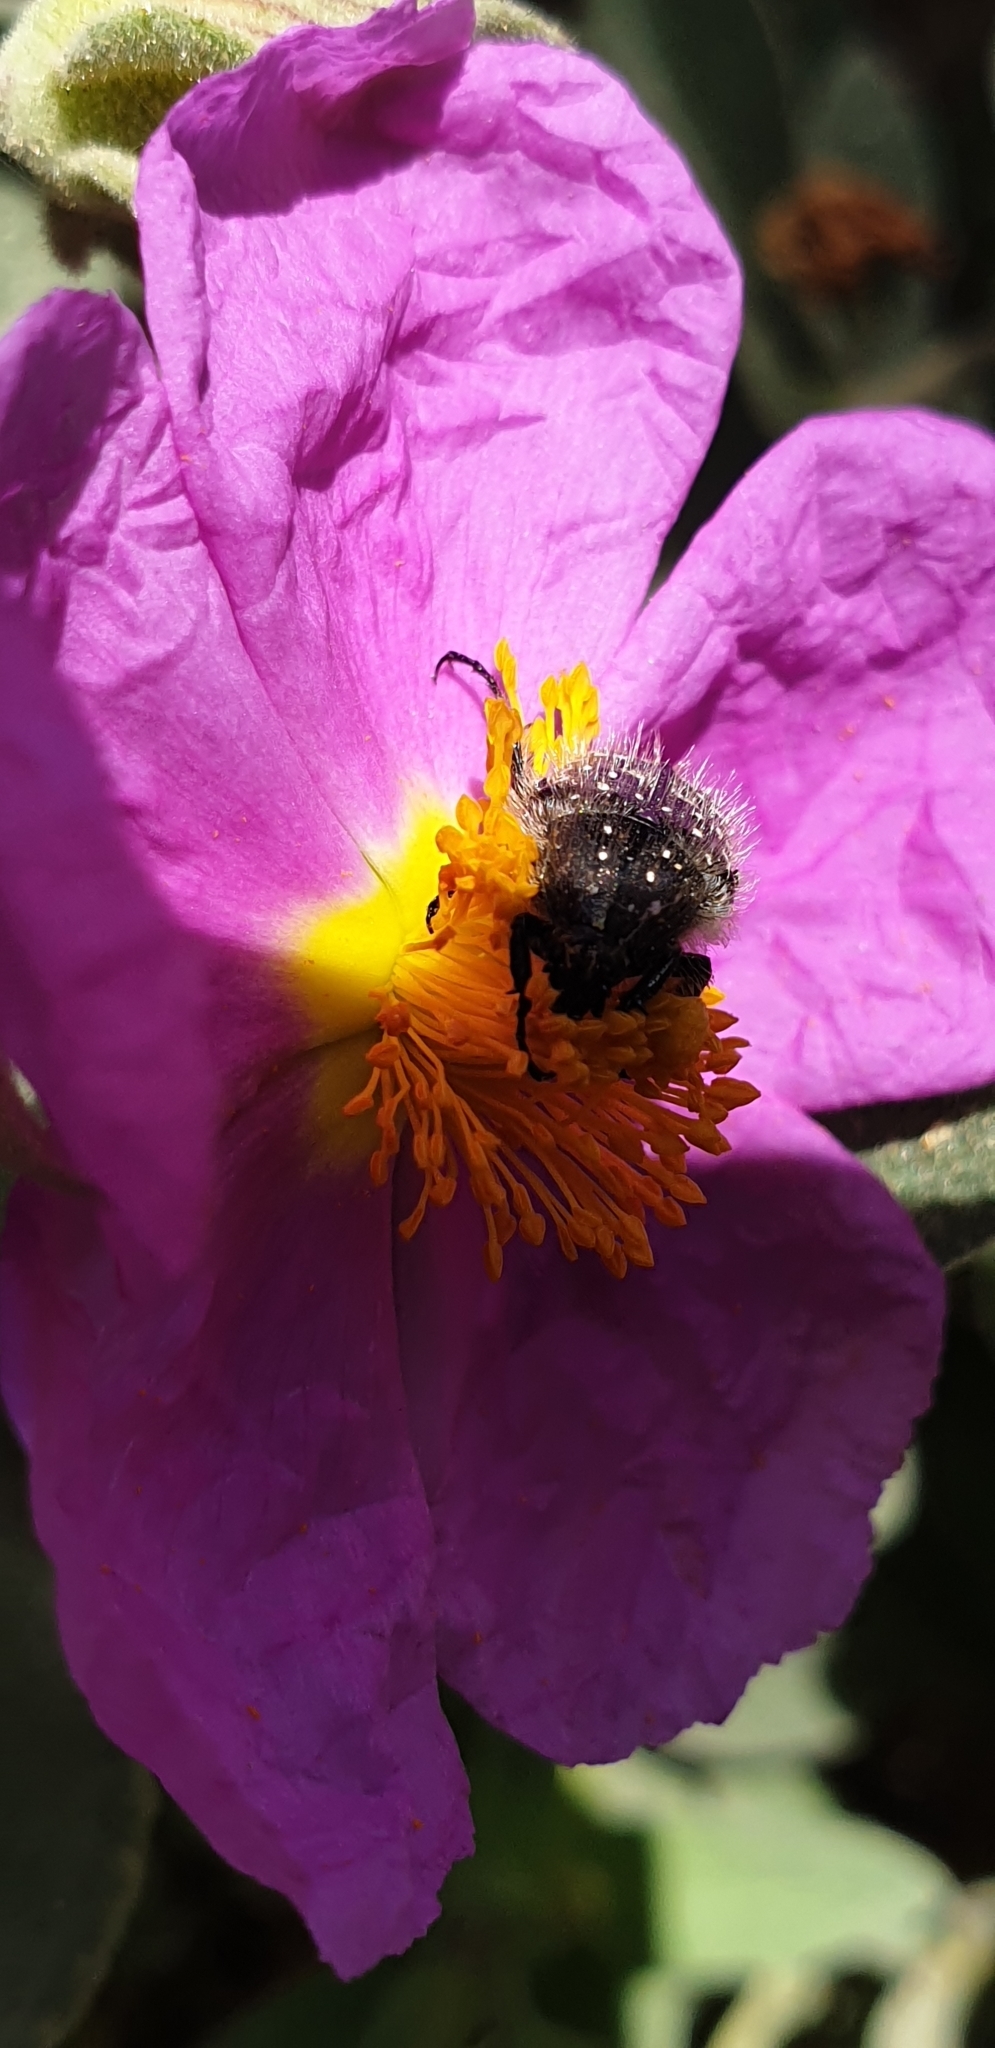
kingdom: Animalia
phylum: Arthropoda
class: Insecta
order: Coleoptera
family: Scarabaeidae
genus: Oxythyrea
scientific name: Oxythyrea funesta
